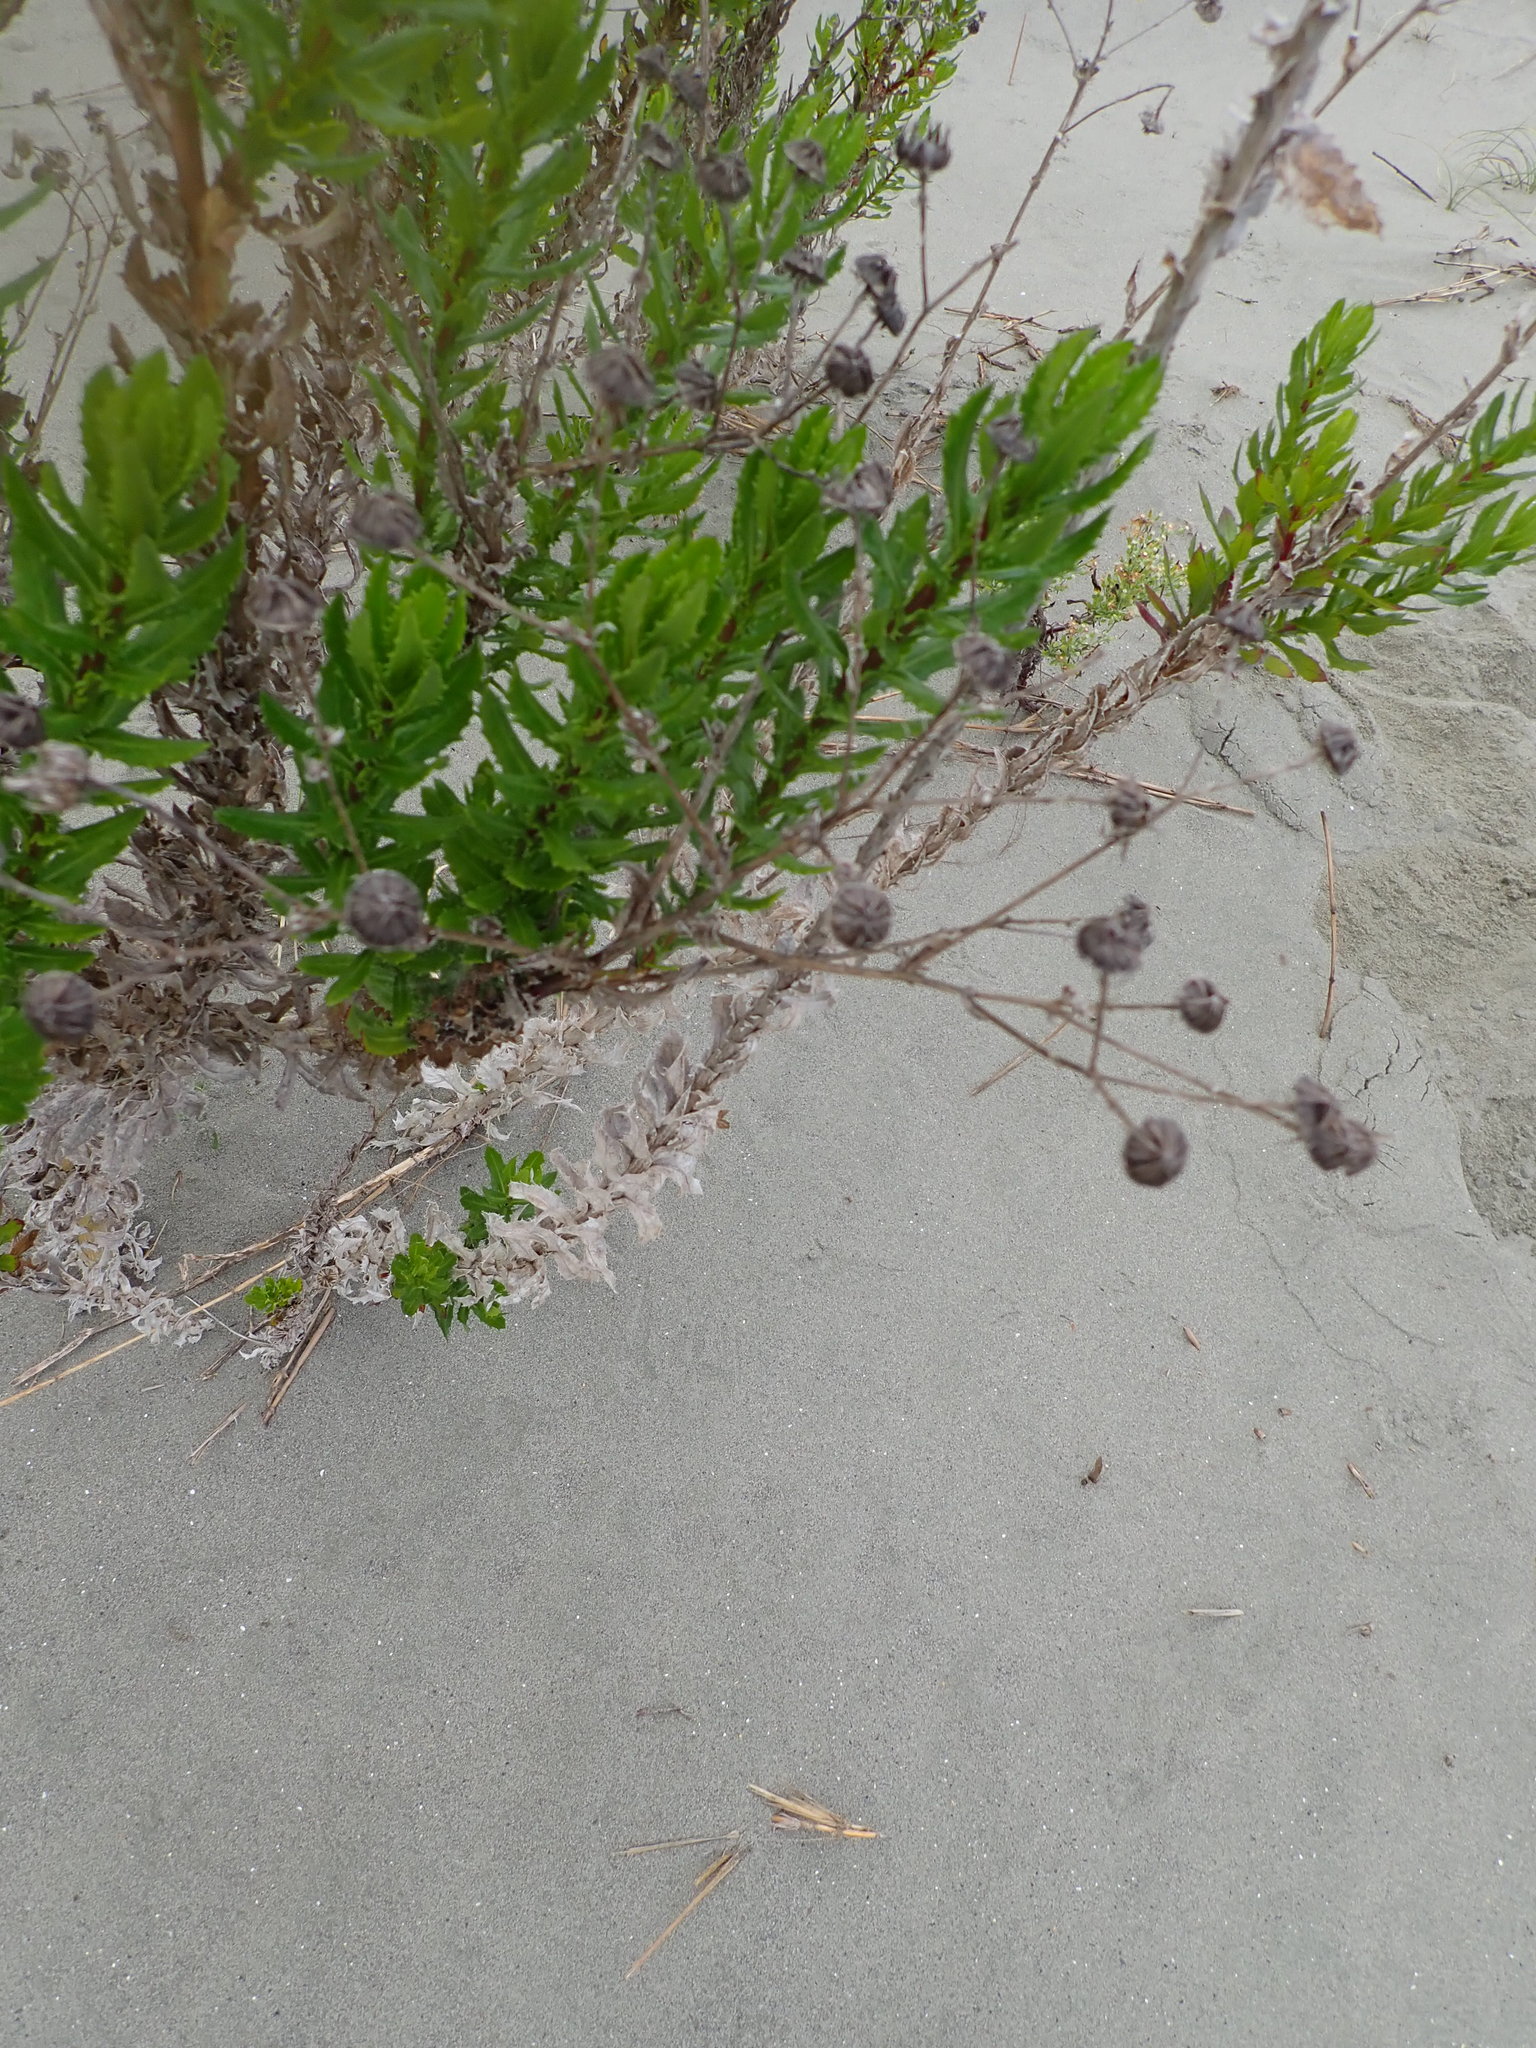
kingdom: Plantae
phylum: Tracheophyta
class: Magnoliopsida
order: Asterales
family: Asteraceae
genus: Senecio
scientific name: Senecio glastifolius
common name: Woad-leaved ragwort
